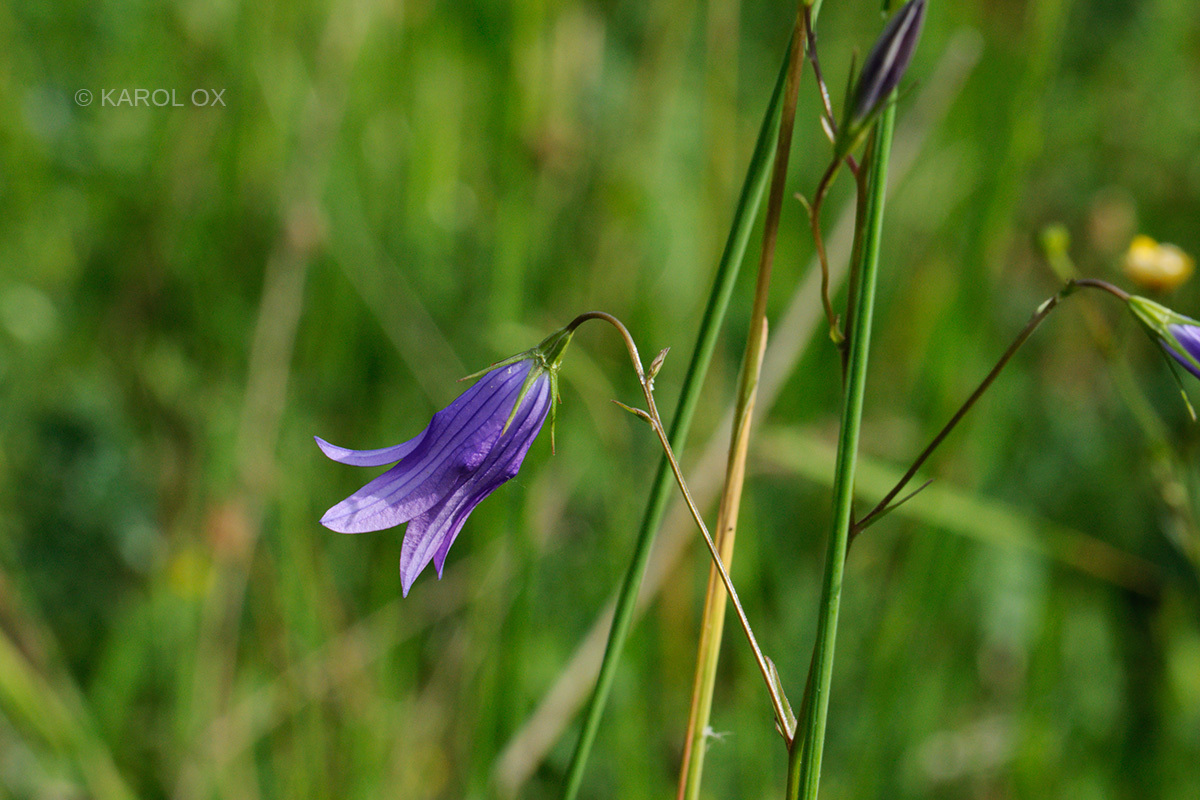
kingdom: Plantae
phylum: Tracheophyta
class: Magnoliopsida
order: Asterales
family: Campanulaceae
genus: Campanula
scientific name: Campanula patula
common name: Spreading bellflower
